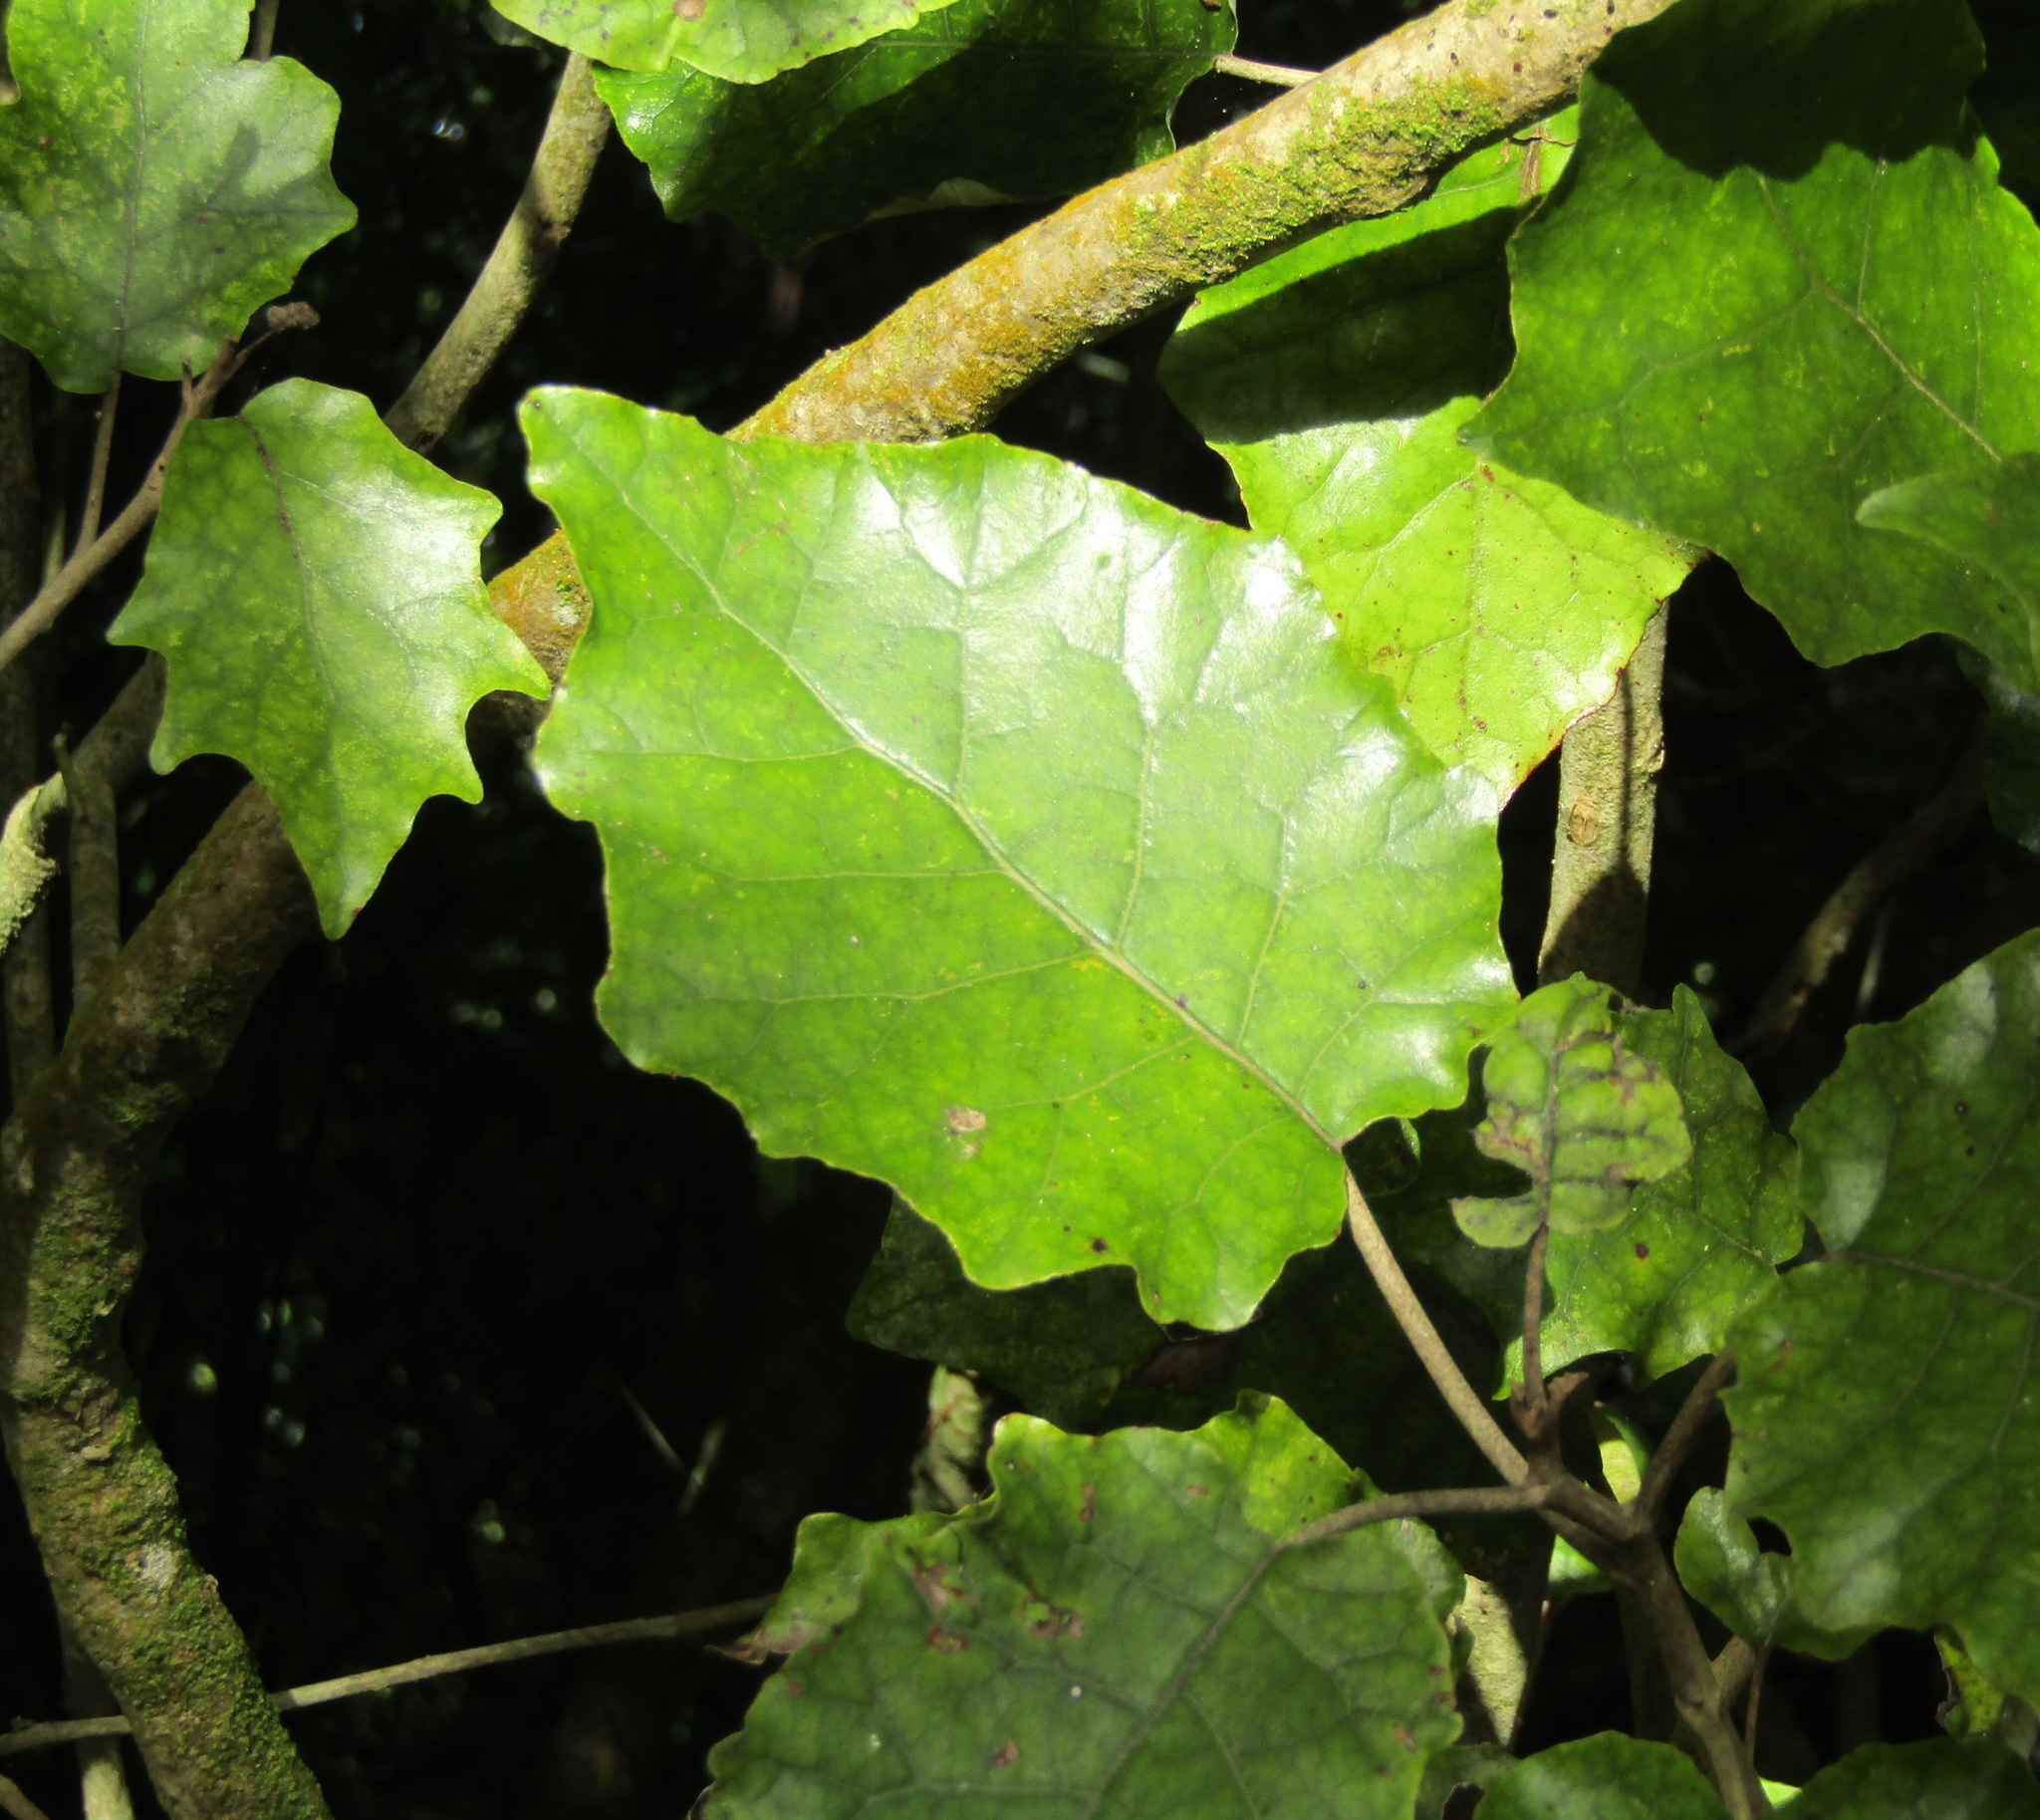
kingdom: Plantae
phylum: Tracheophyta
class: Magnoliopsida
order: Asterales
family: Asteraceae
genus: Brachyglottis
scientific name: Brachyglottis repanda
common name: Hedge ragwort
